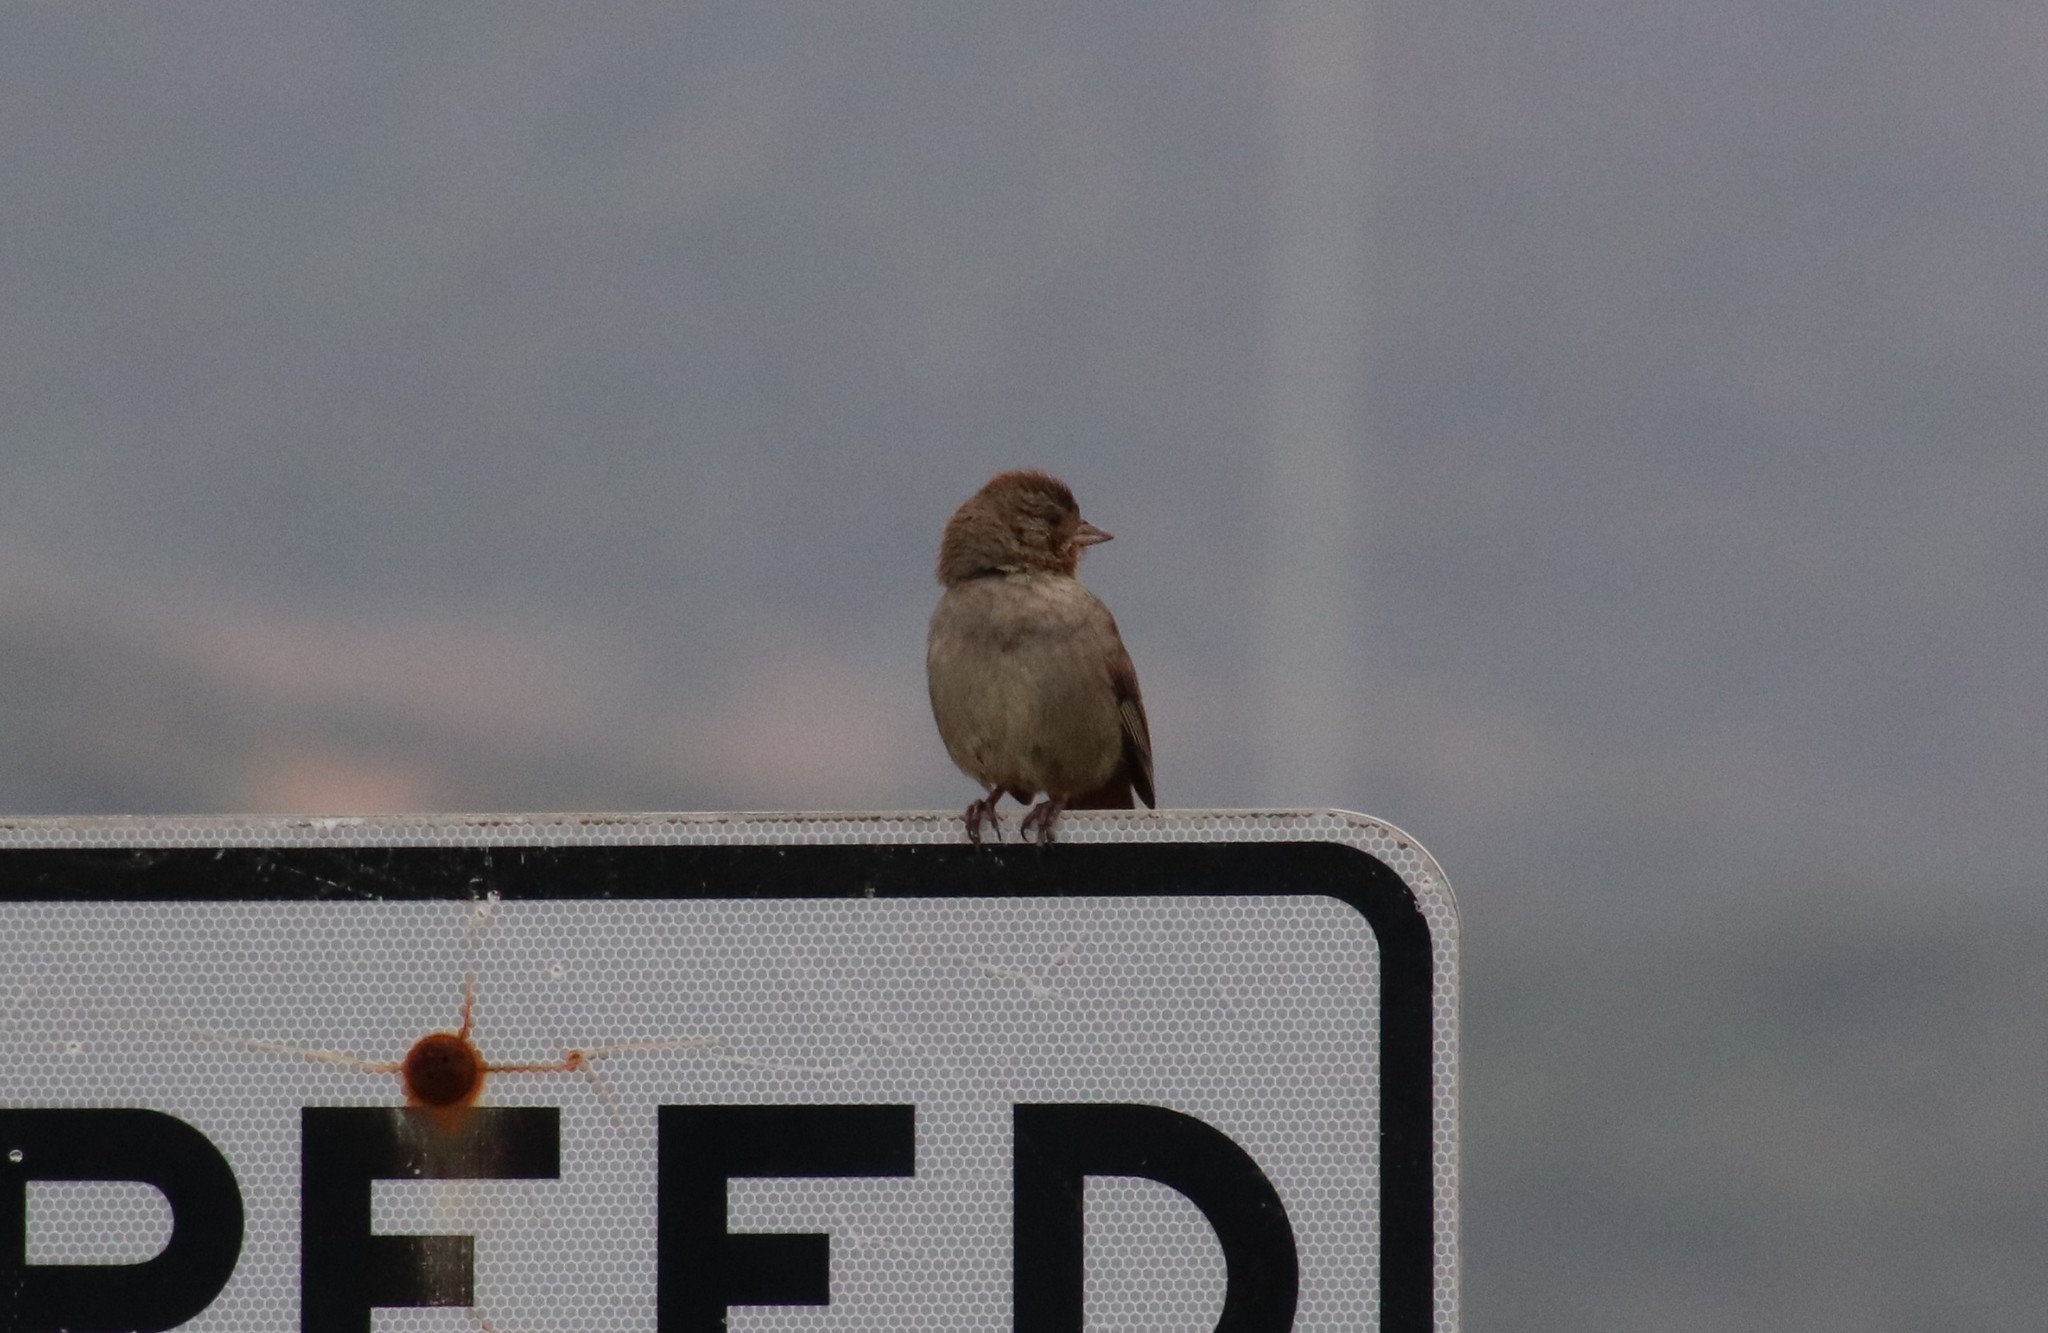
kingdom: Animalia
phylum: Chordata
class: Aves
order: Passeriformes
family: Passerellidae
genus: Melozone
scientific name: Melozone crissalis
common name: California towhee
